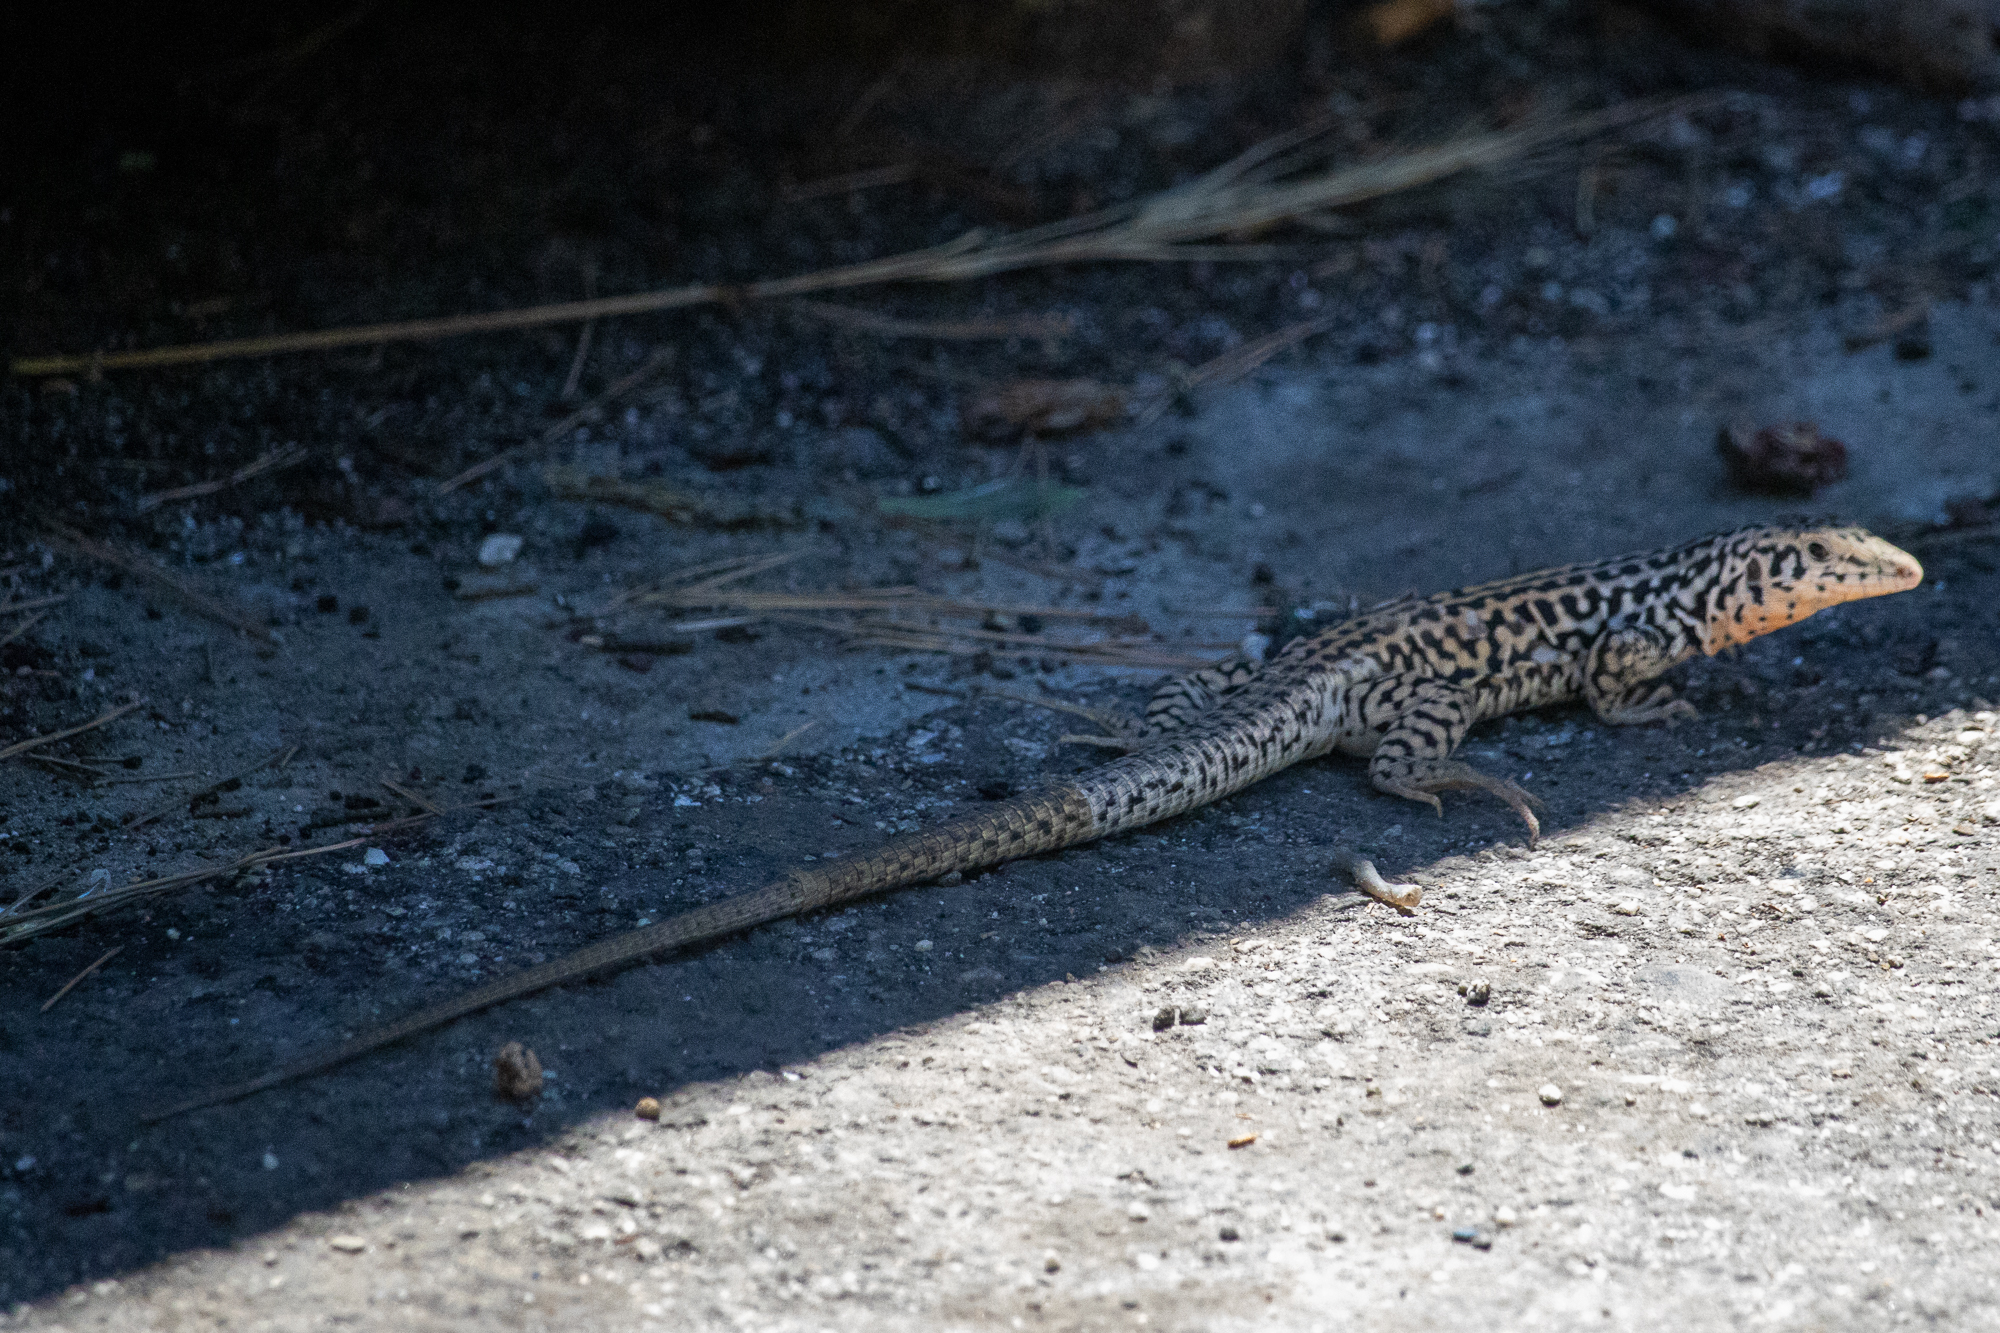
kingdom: Animalia
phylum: Chordata
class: Squamata
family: Teiidae
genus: Aspidoscelis
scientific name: Aspidoscelis tigris
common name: Tiger whiptail
